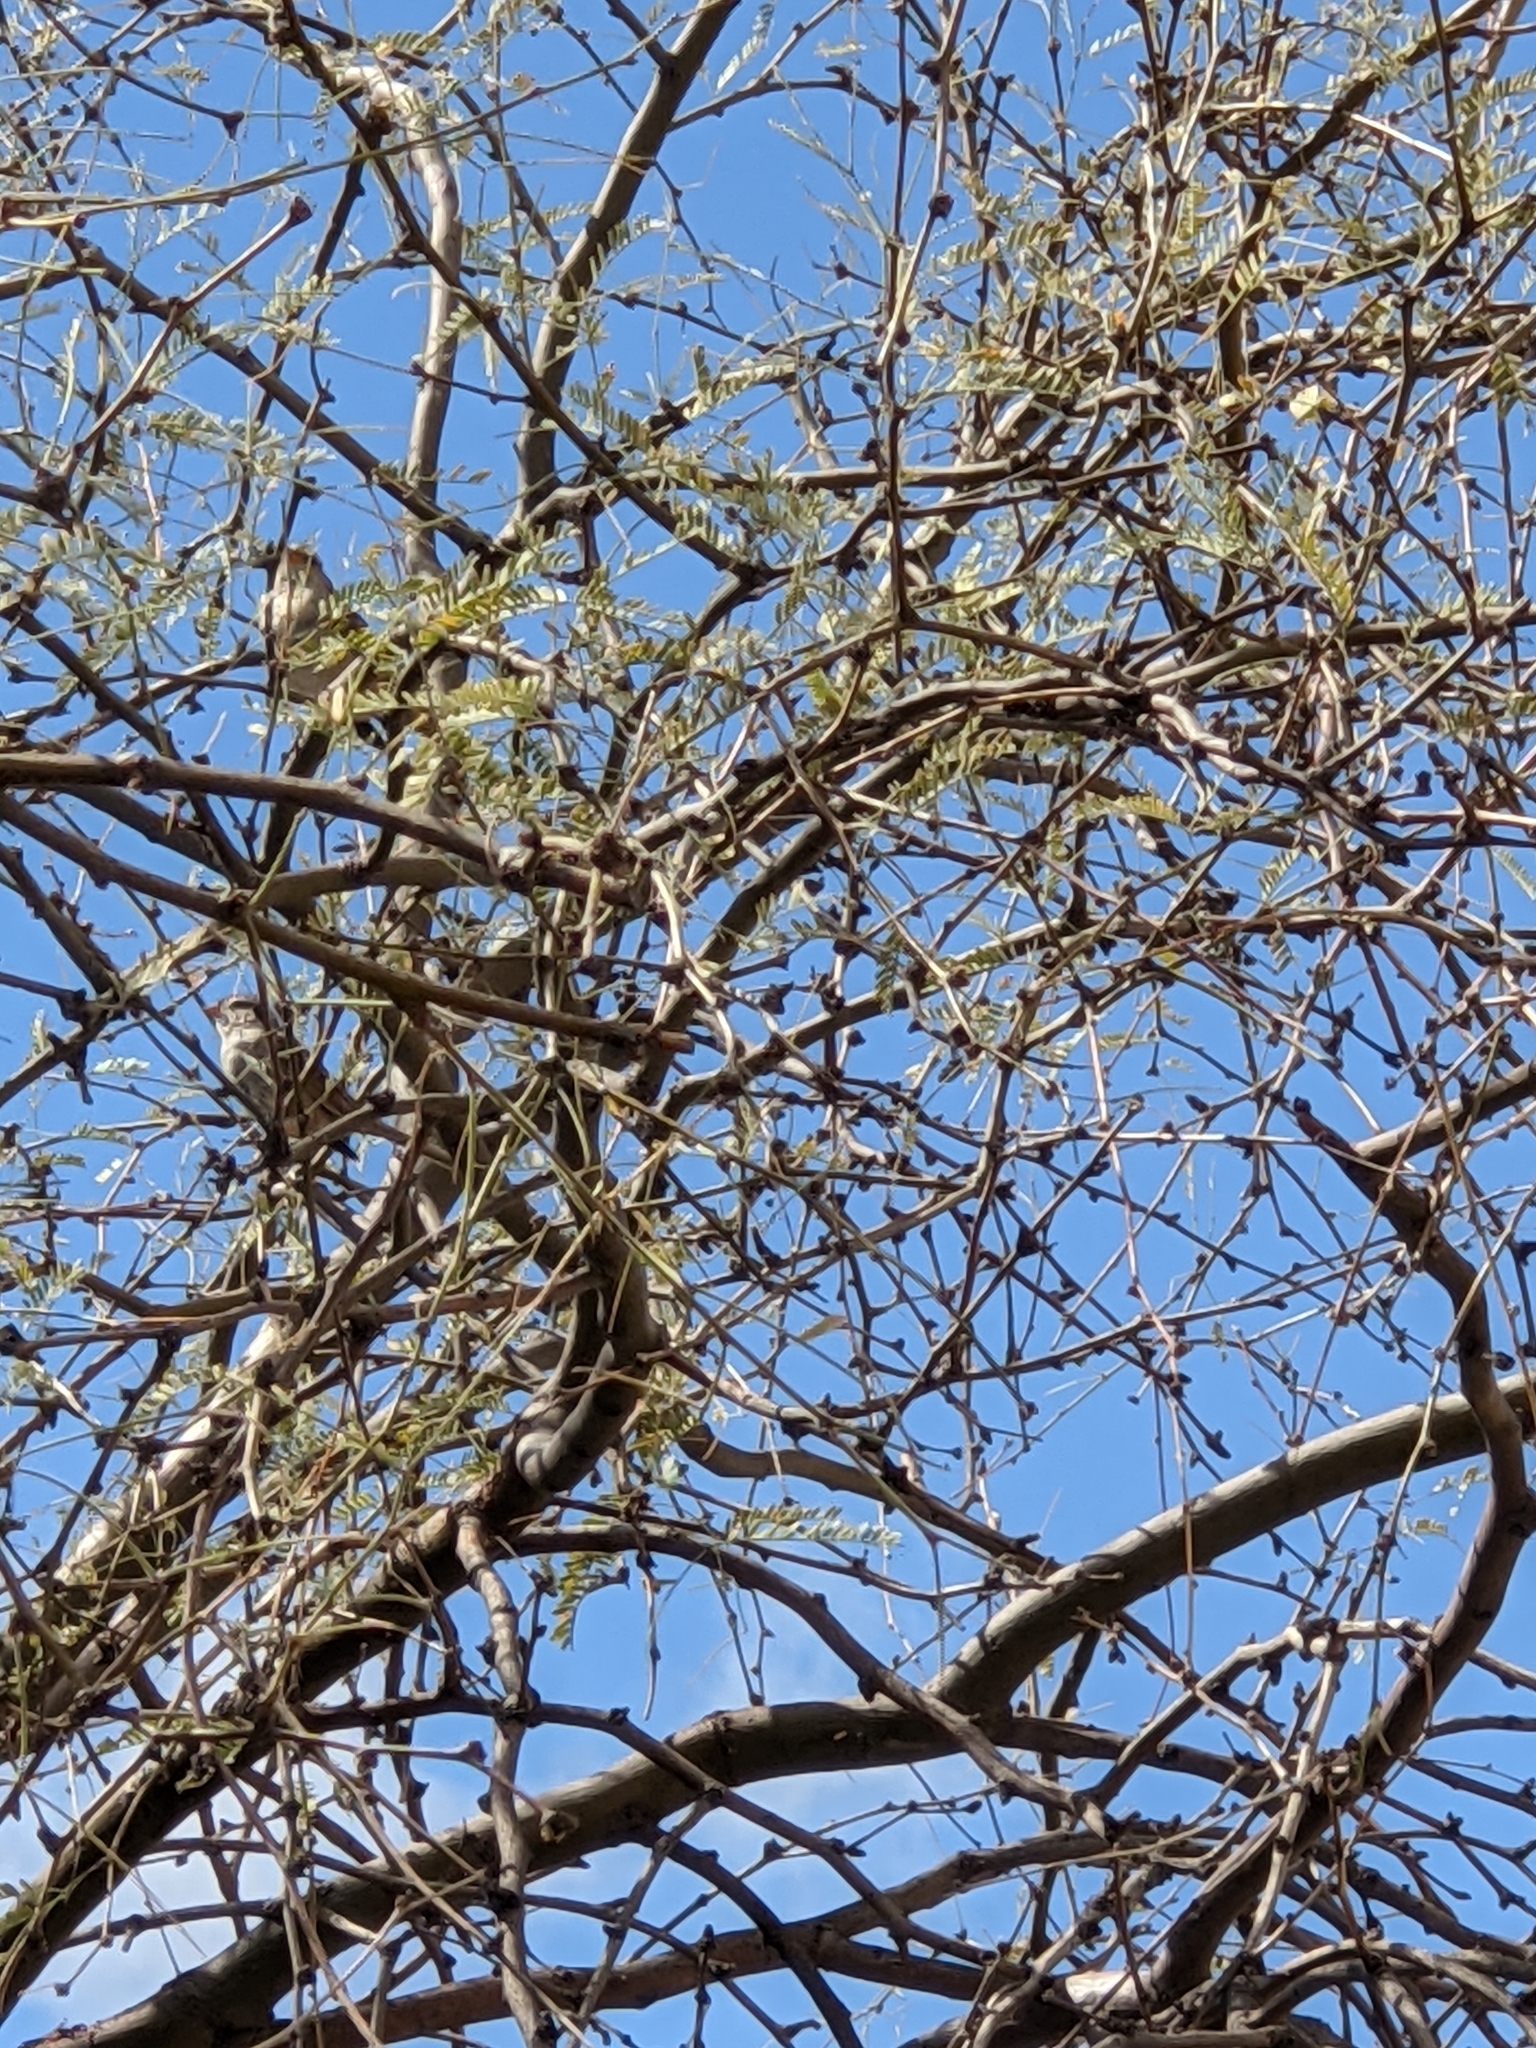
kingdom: Animalia
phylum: Chordata
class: Aves
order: Passeriformes
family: Polioptilidae
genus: Polioptila
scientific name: Polioptila melanura
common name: Black-tailed gnatcatcher
